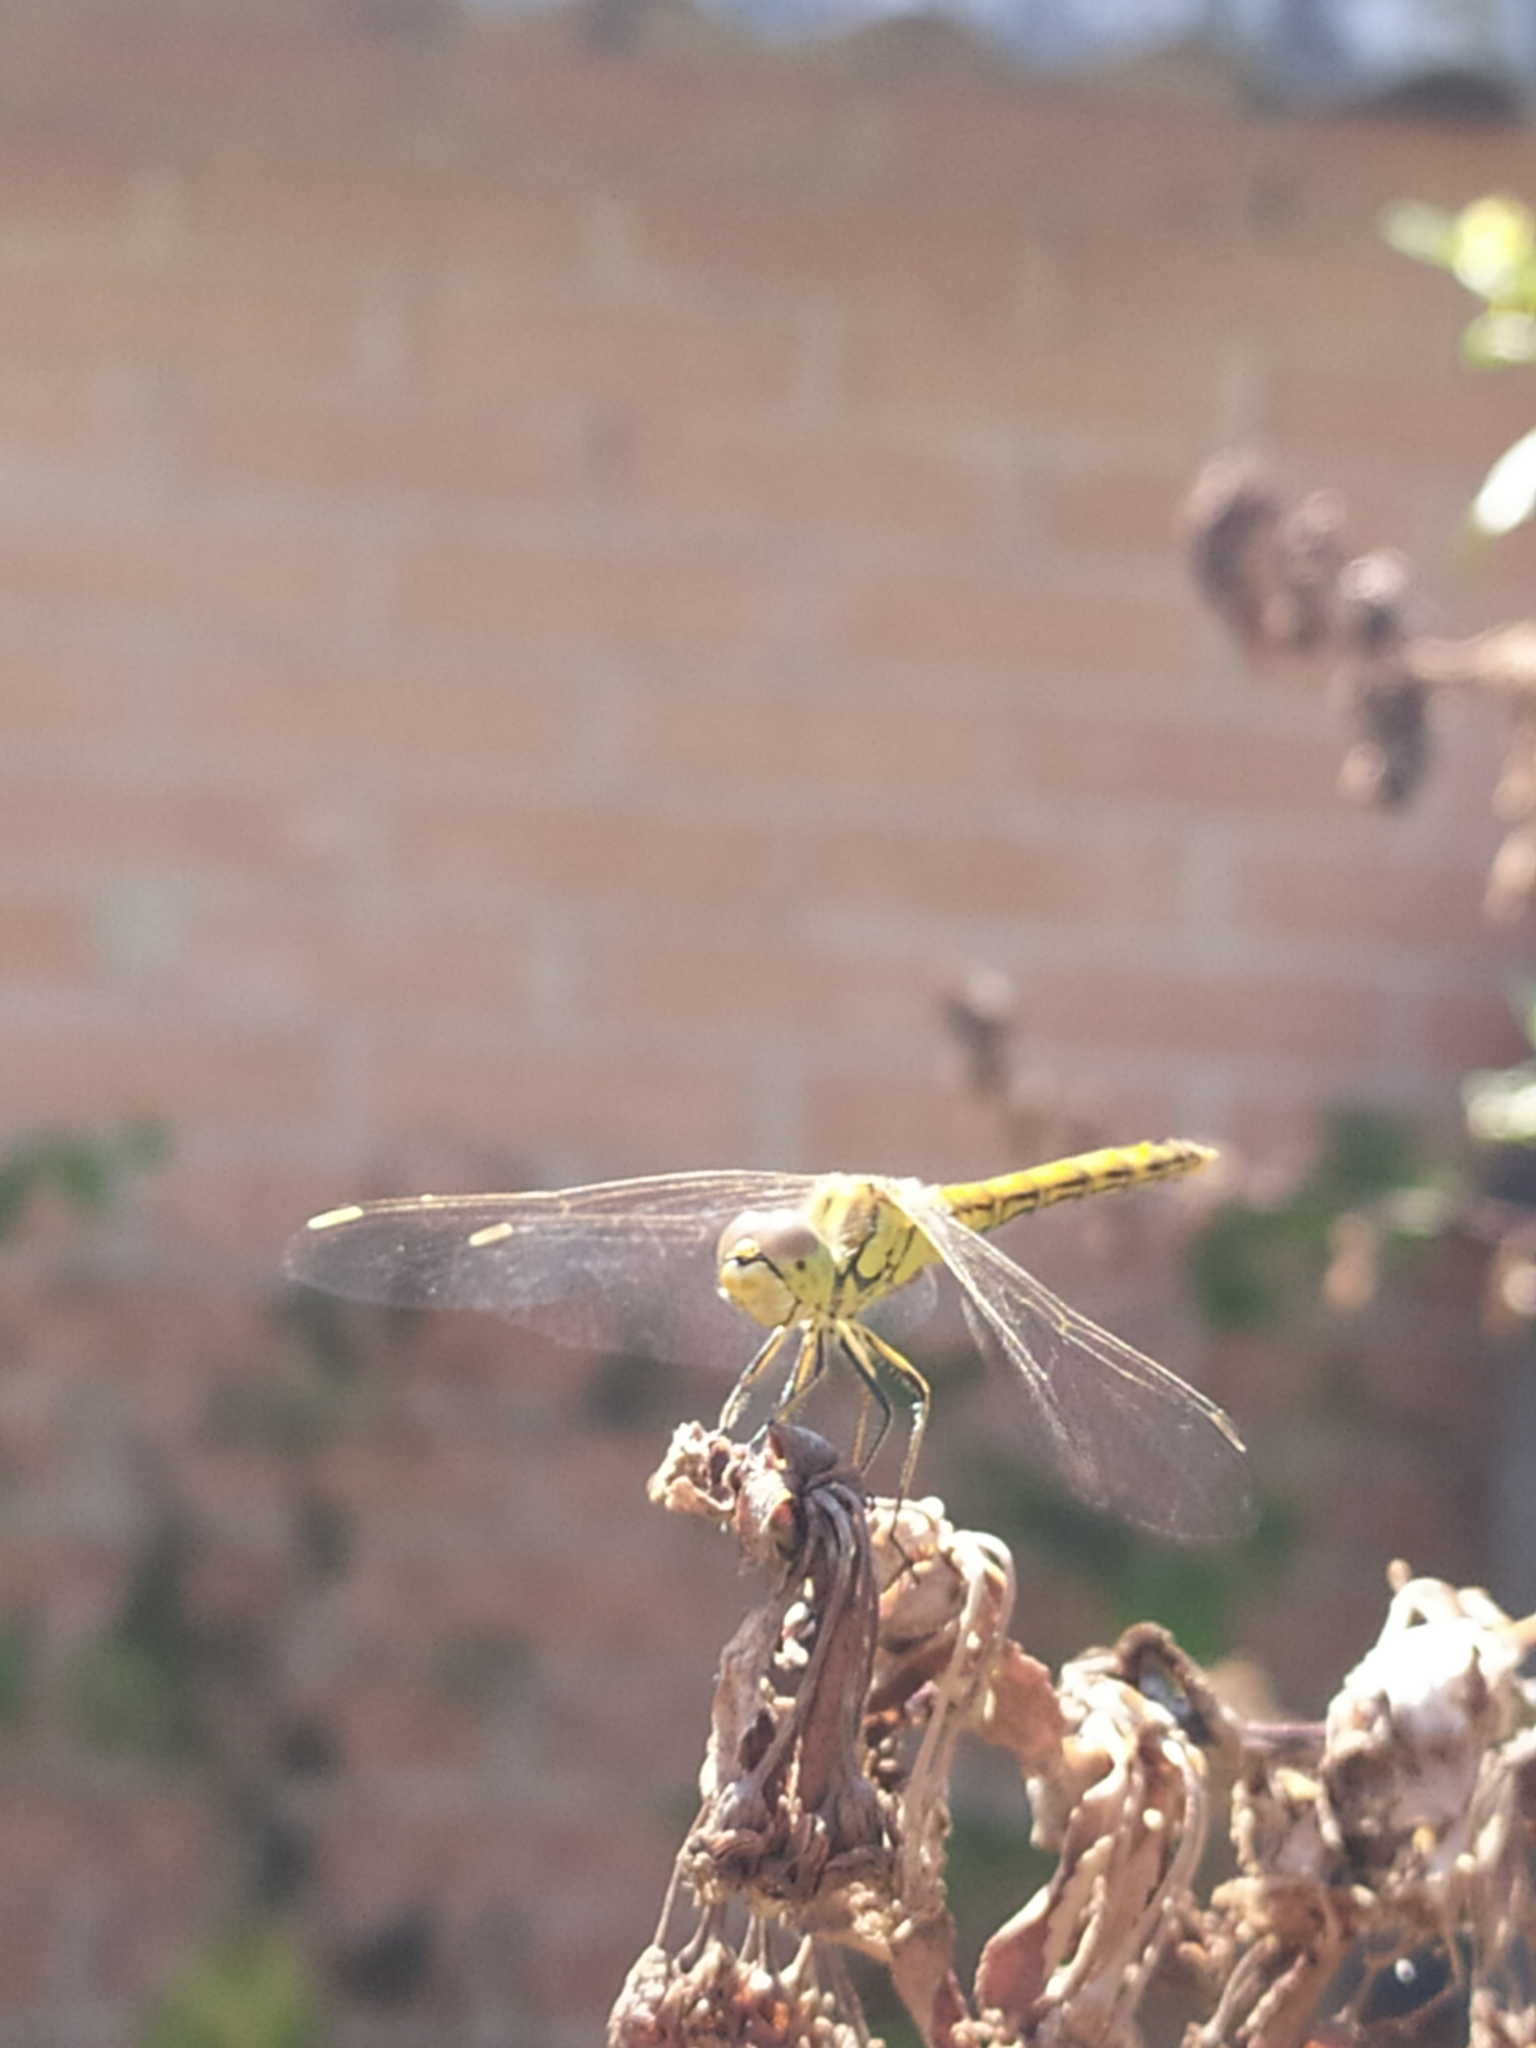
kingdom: Animalia
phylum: Arthropoda
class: Insecta
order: Odonata
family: Libellulidae
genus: Sympetrum
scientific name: Sympetrum vulgatum
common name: Vagrant darter
